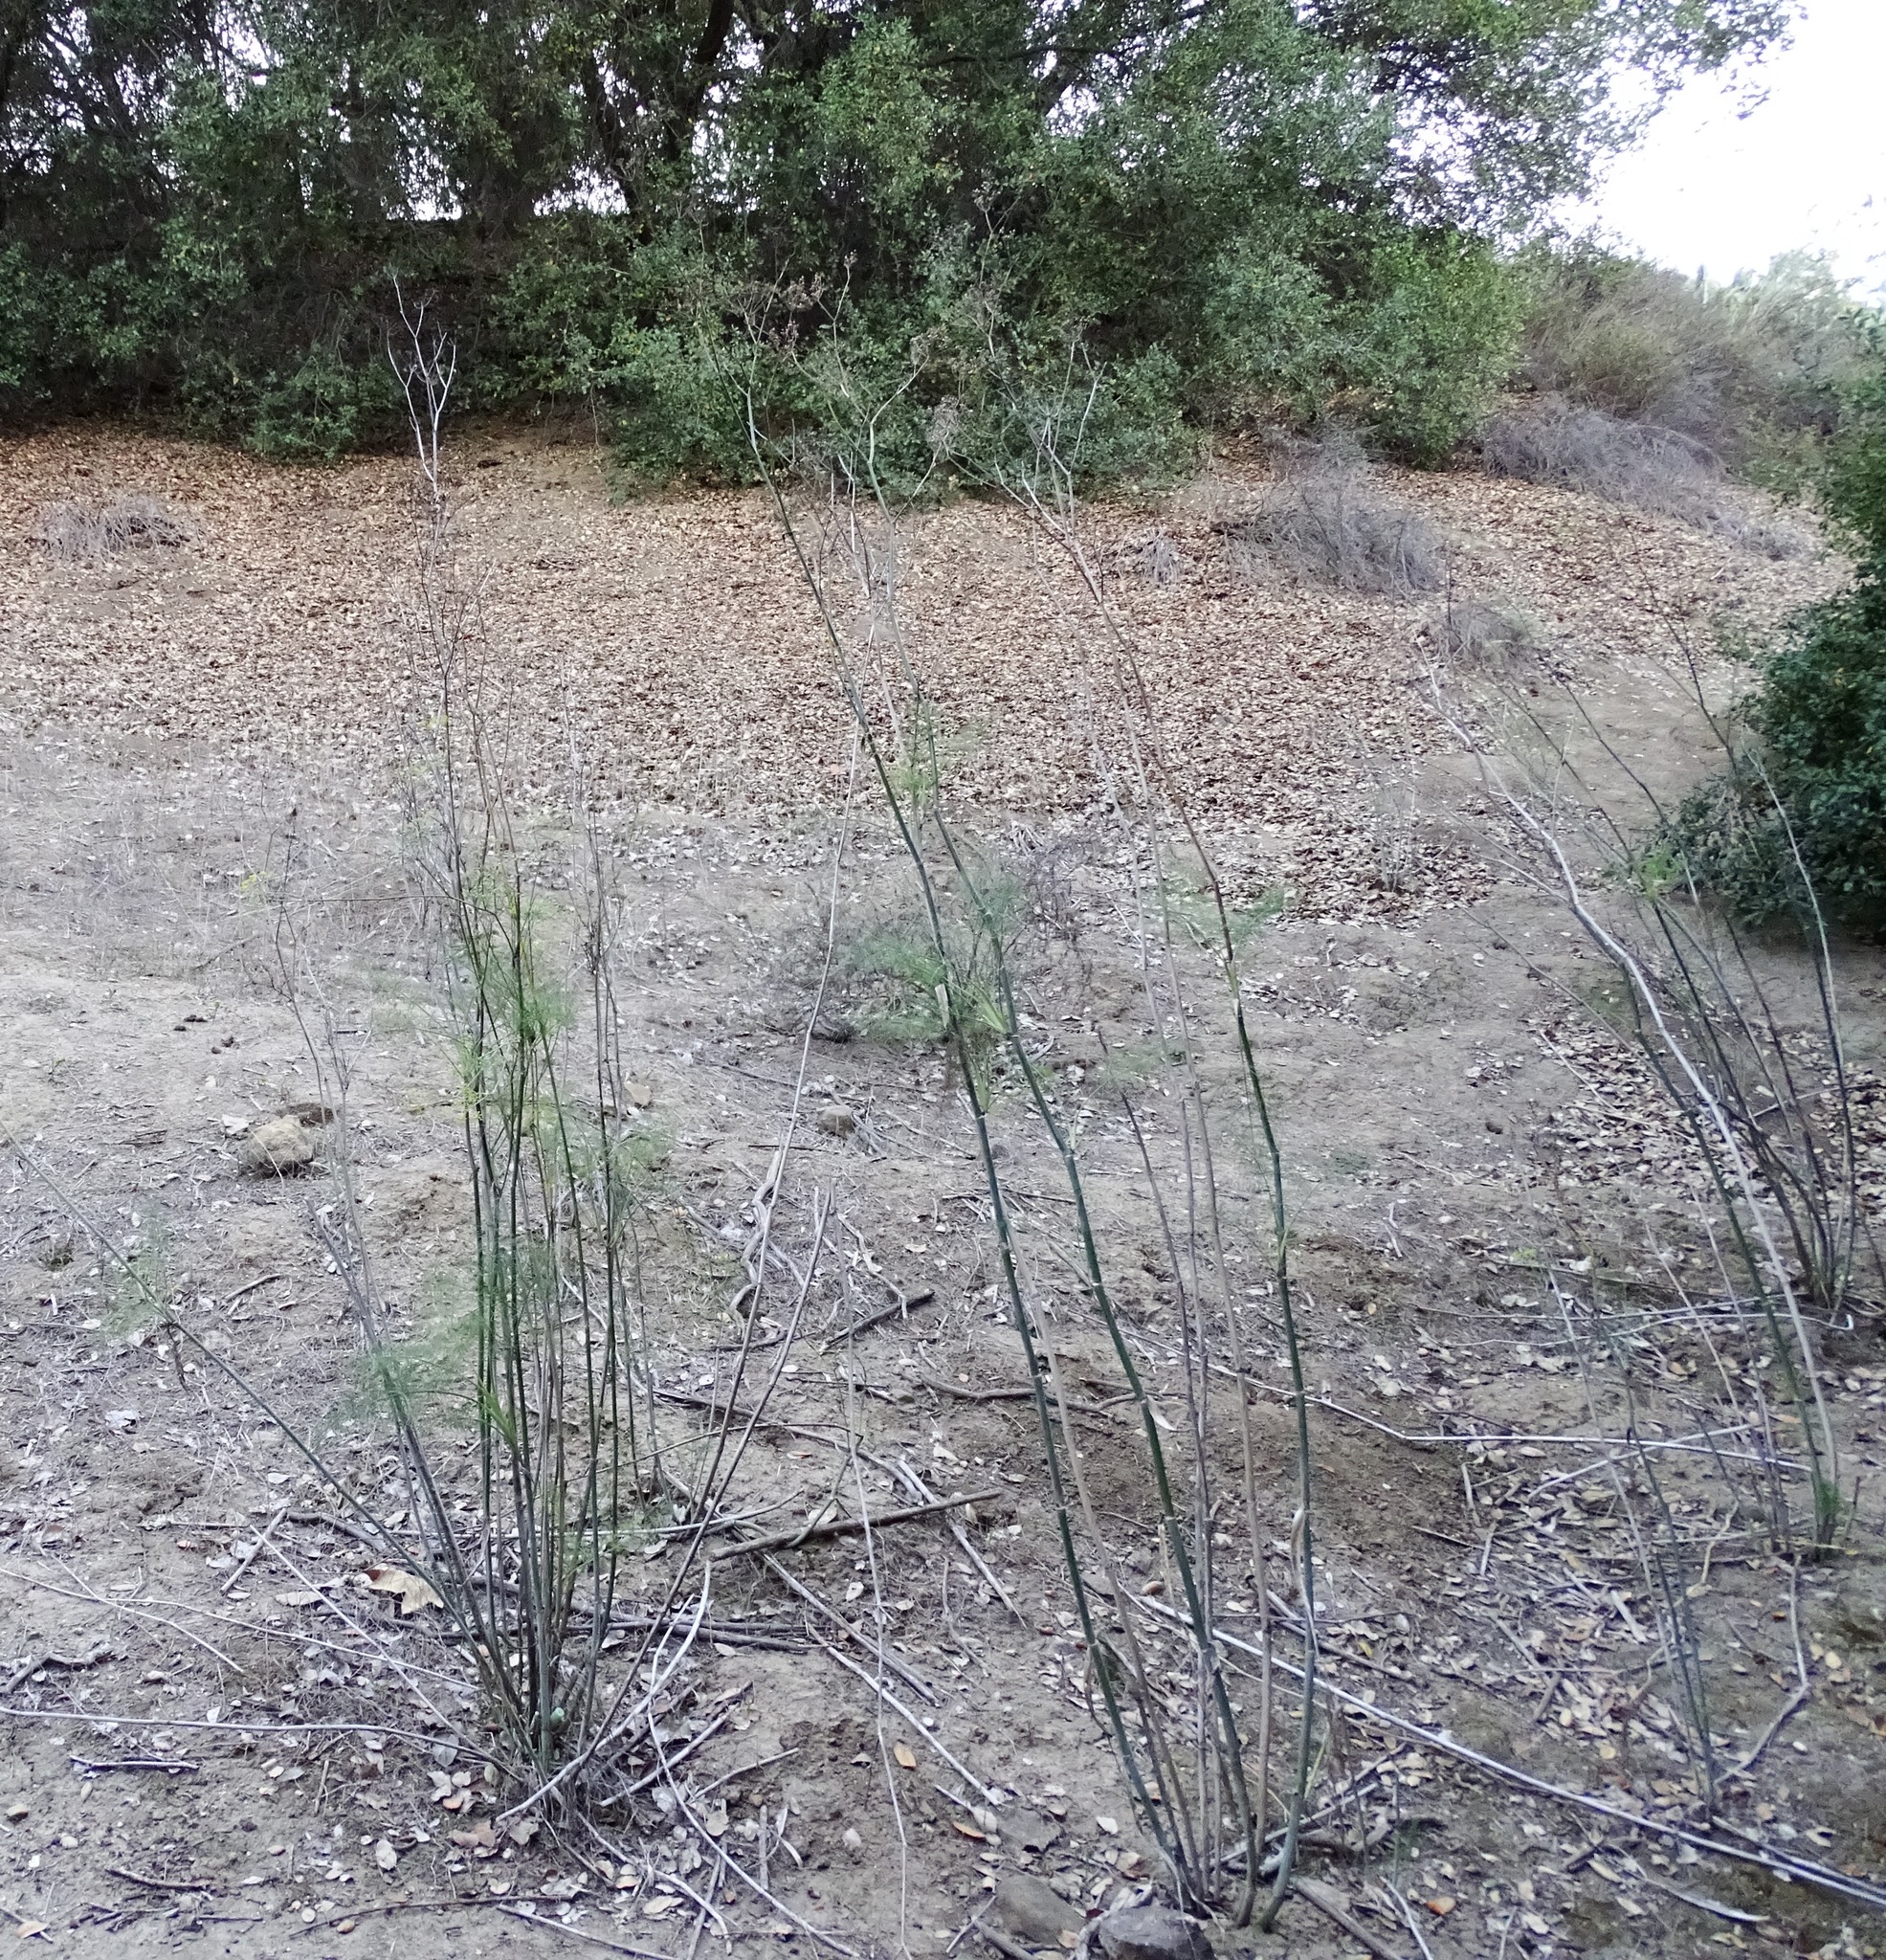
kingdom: Plantae
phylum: Tracheophyta
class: Magnoliopsida
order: Apiales
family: Apiaceae
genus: Foeniculum
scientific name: Foeniculum vulgare
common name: Fennel
